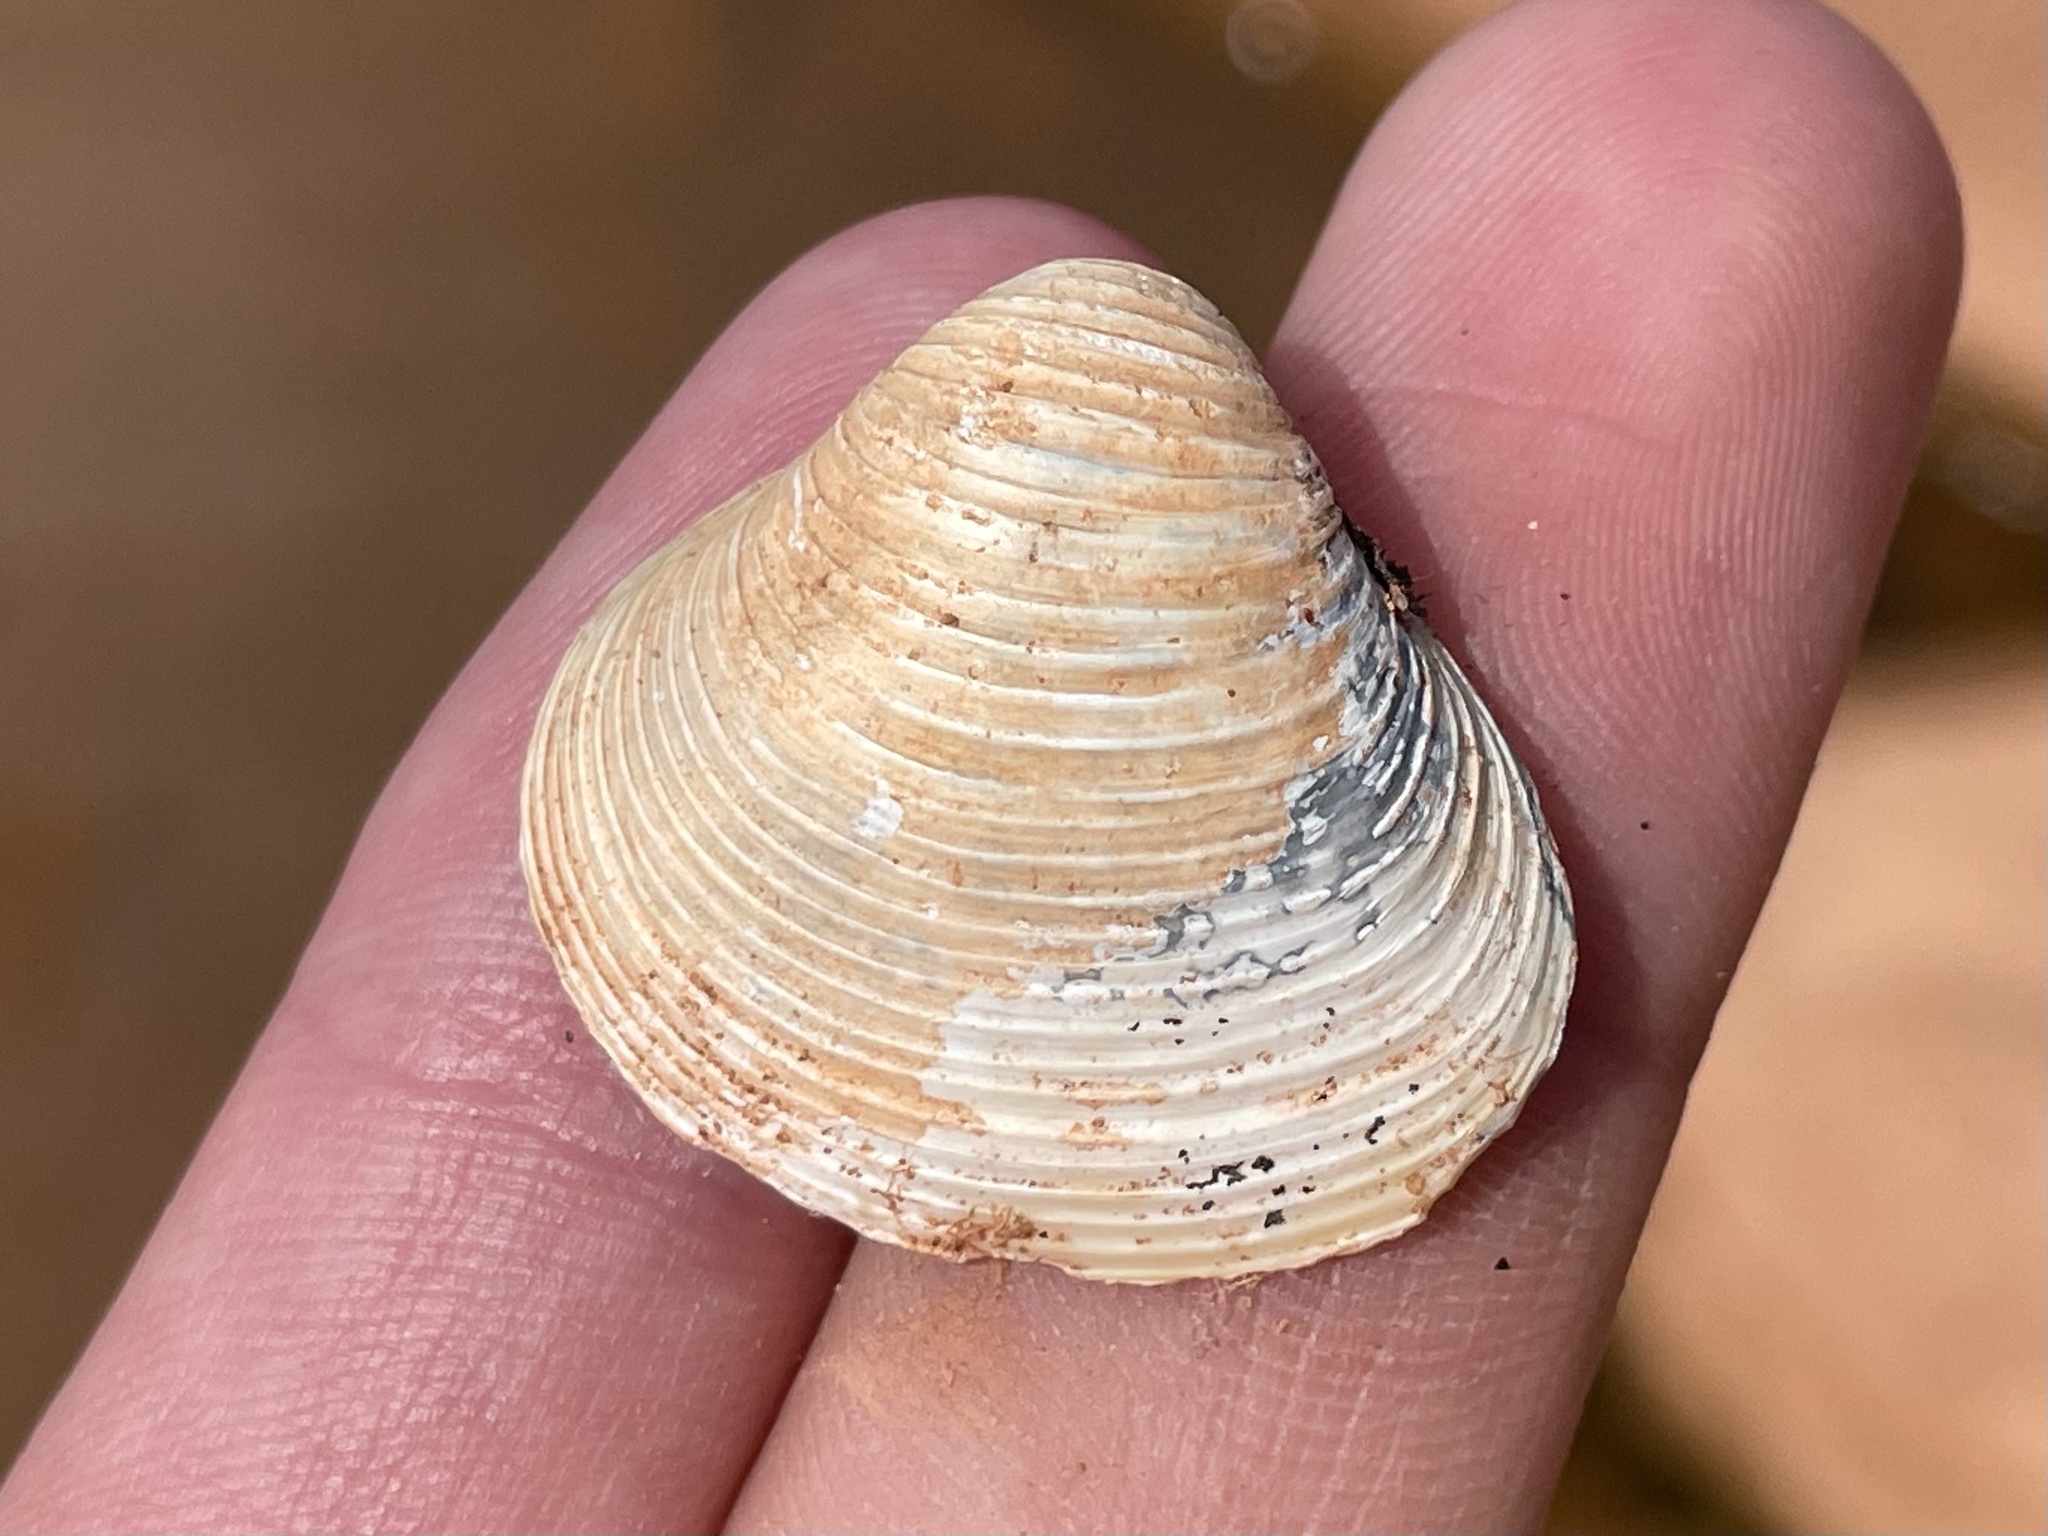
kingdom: Animalia
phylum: Mollusca
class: Bivalvia
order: Venerida
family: Cyrenidae
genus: Corbicula
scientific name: Corbicula fluminea
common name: Asian clam
